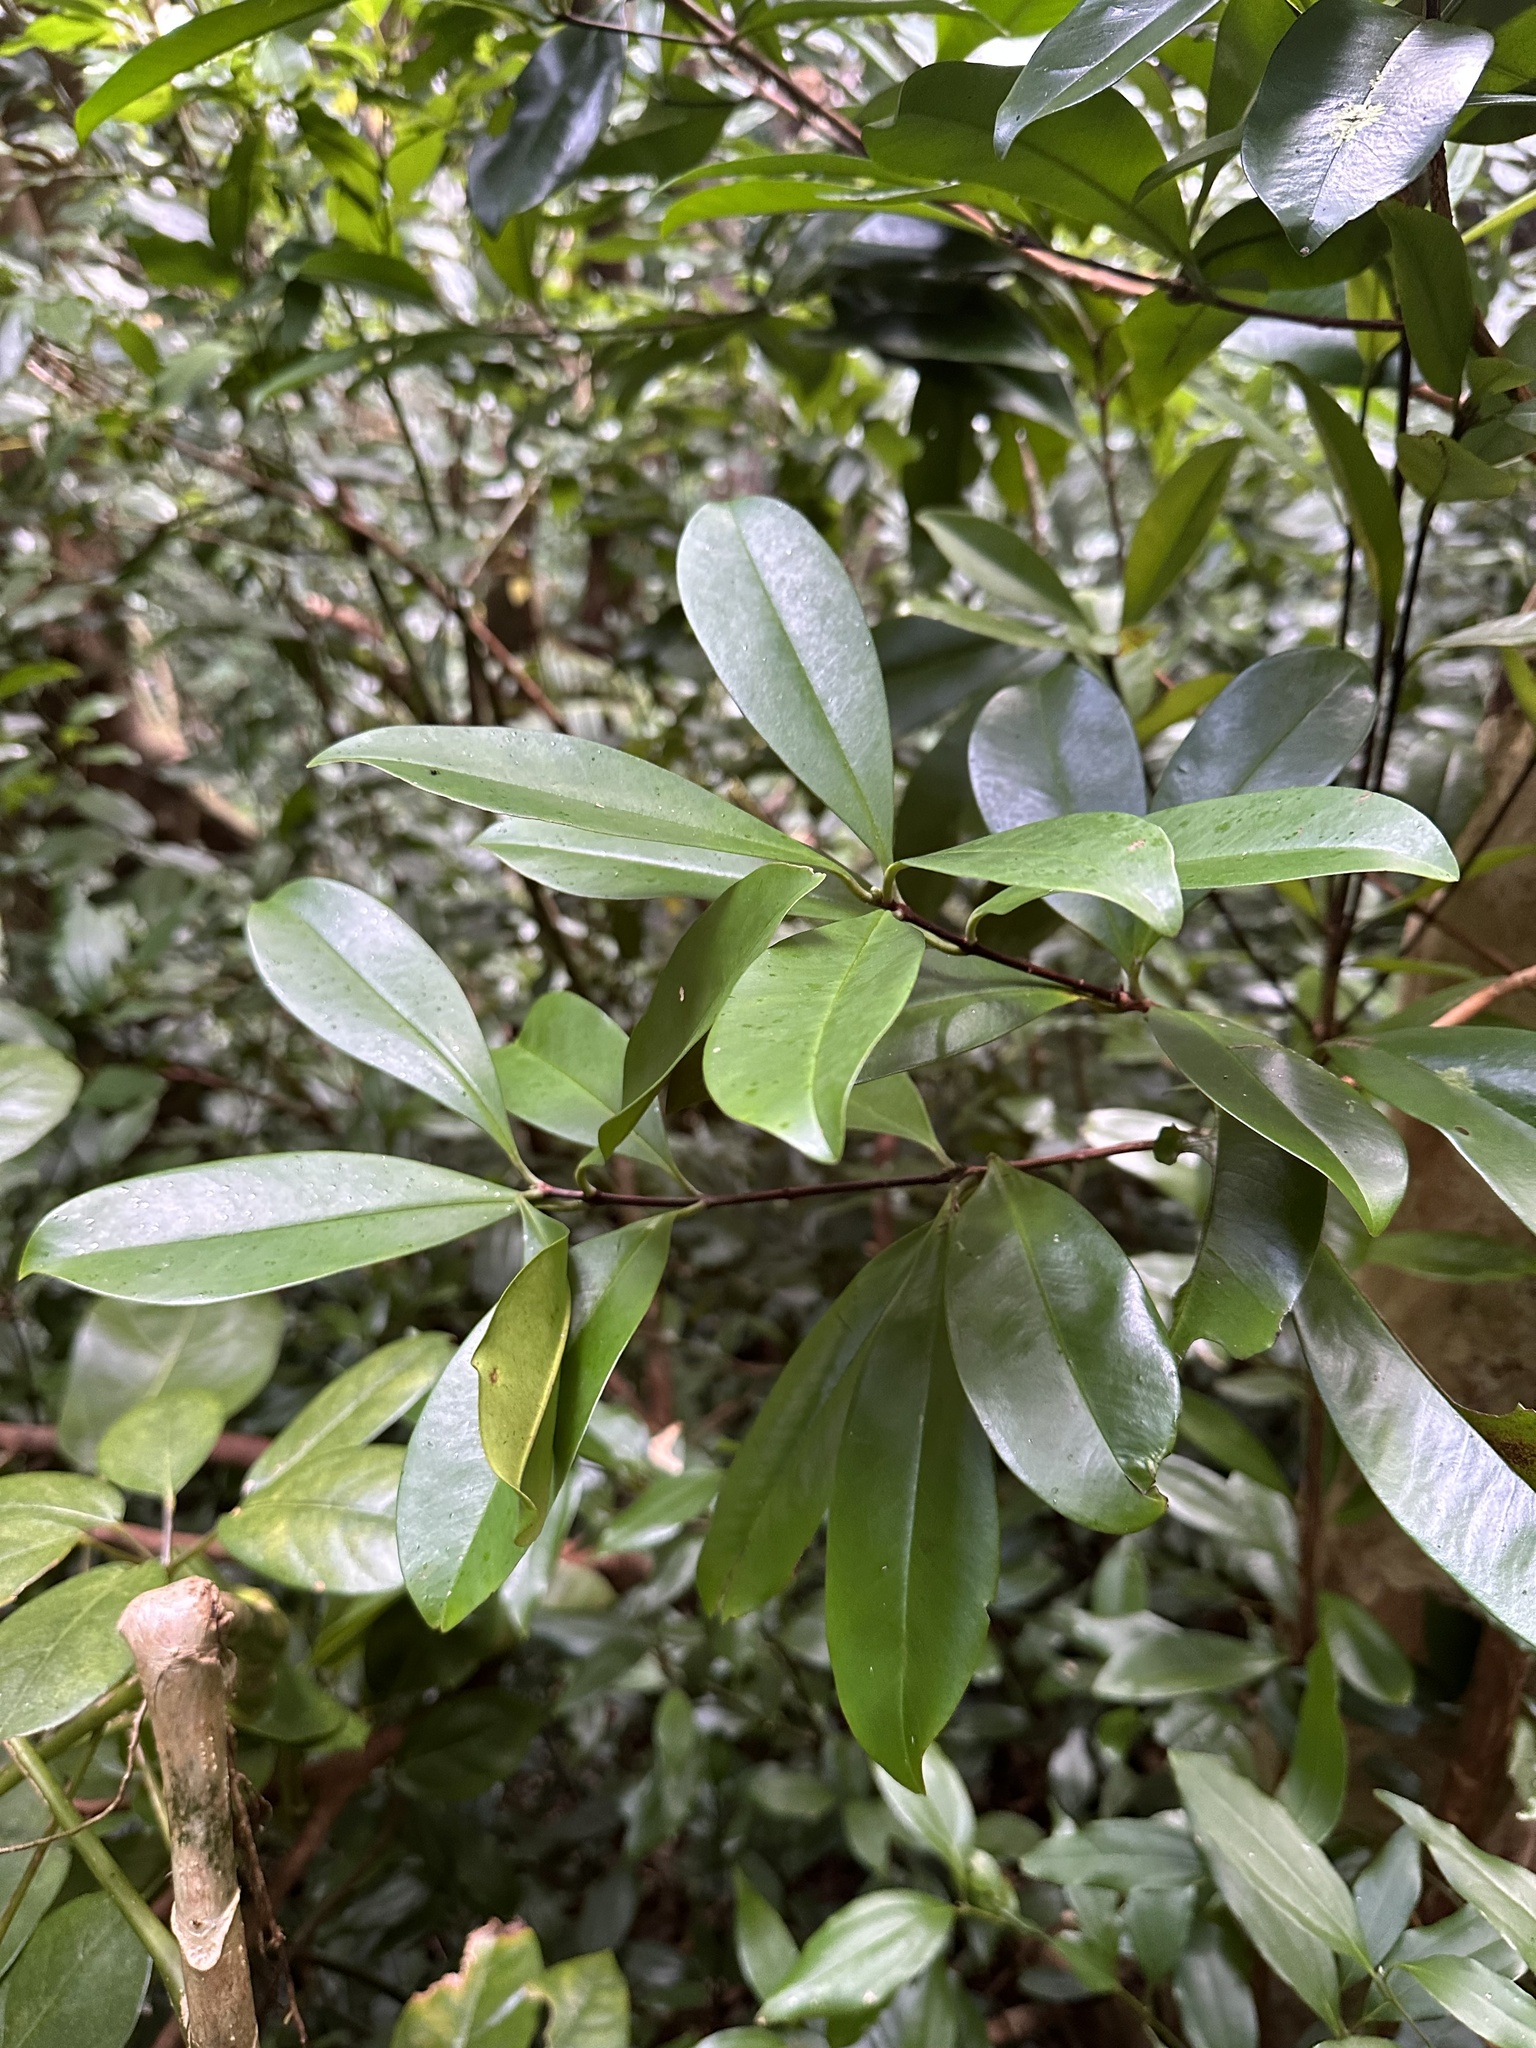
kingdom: Plantae
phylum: Tracheophyta
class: Magnoliopsida
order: Myrtales
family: Myrtaceae
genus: Pimenta
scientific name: Pimenta dioica
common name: Allspice
